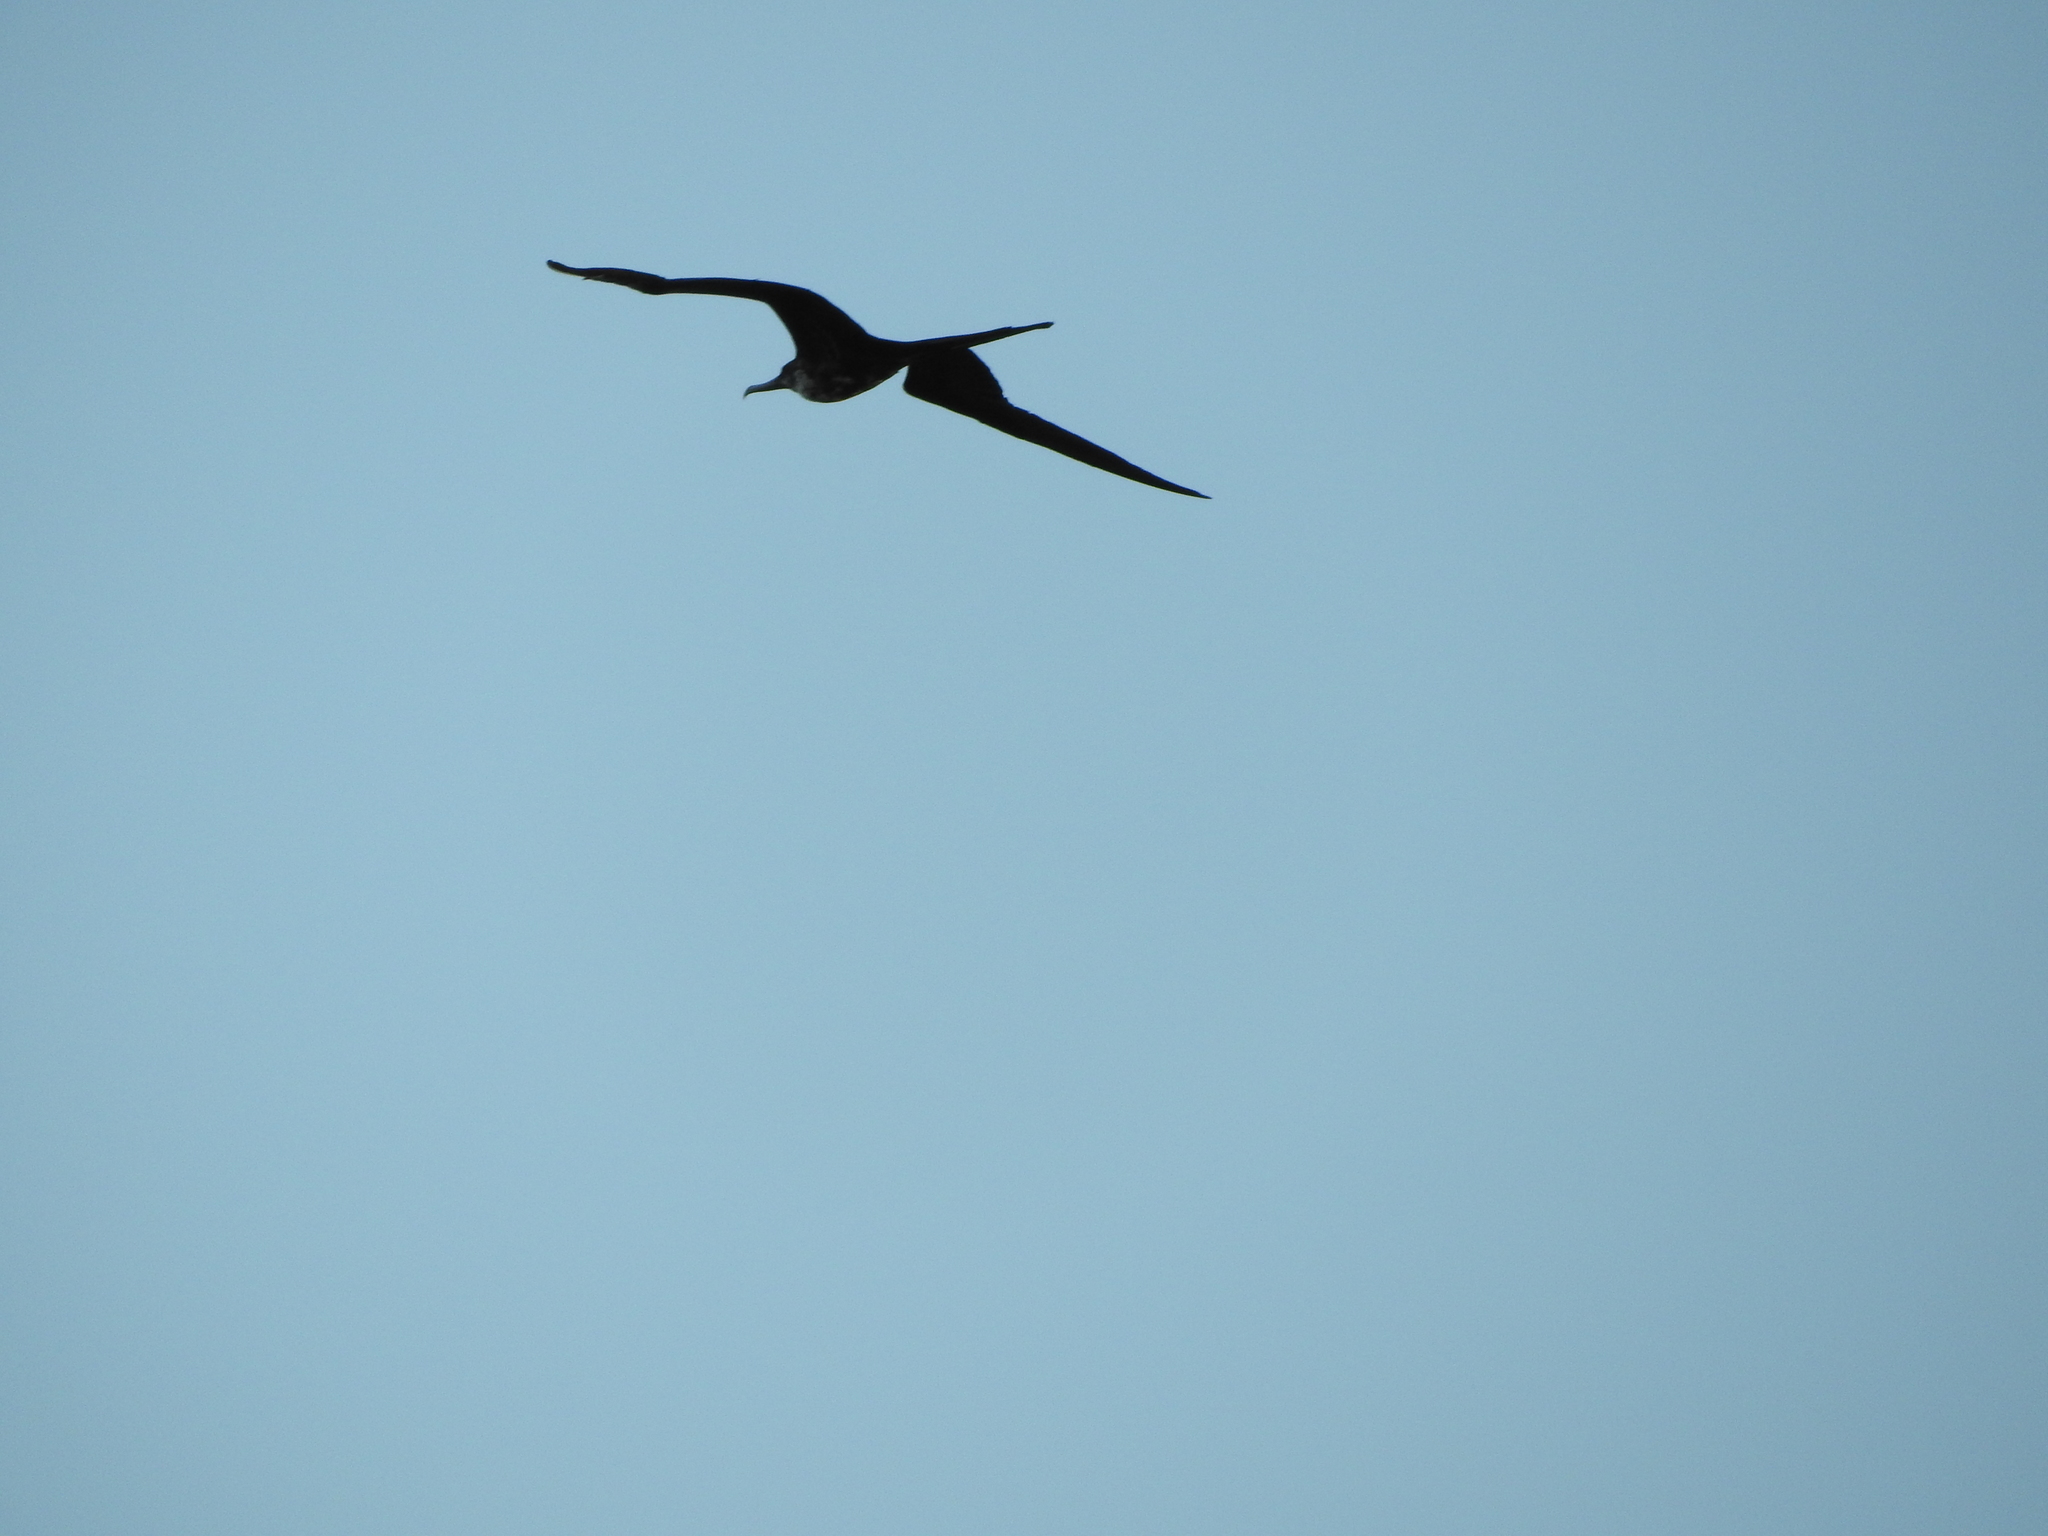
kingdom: Animalia
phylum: Chordata
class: Aves
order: Suliformes
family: Fregatidae
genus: Fregata
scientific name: Fregata magnificens
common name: Magnificent frigatebird
